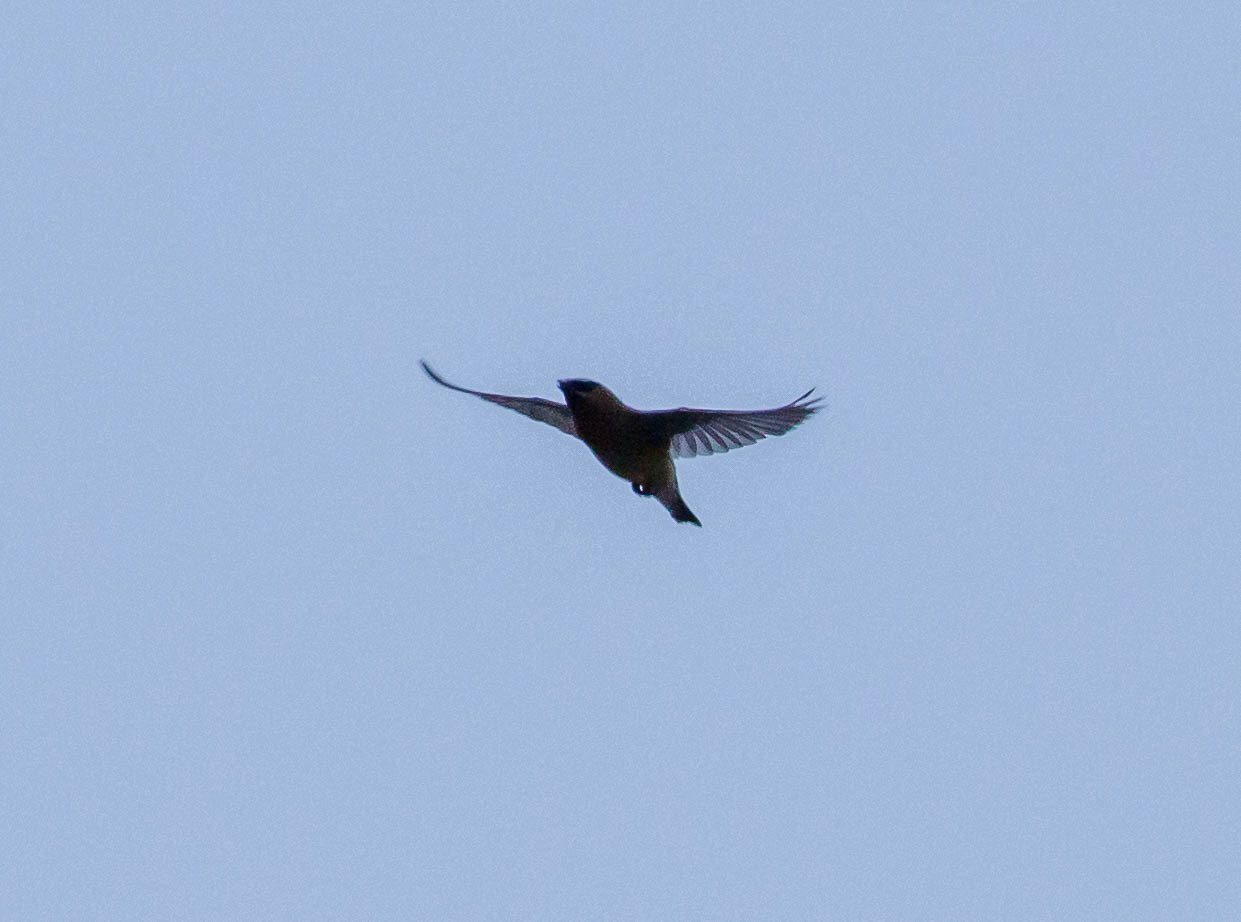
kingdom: Animalia
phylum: Chordata
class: Aves
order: Passeriformes
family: Bombycillidae
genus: Bombycilla
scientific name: Bombycilla cedrorum
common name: Cedar waxwing
